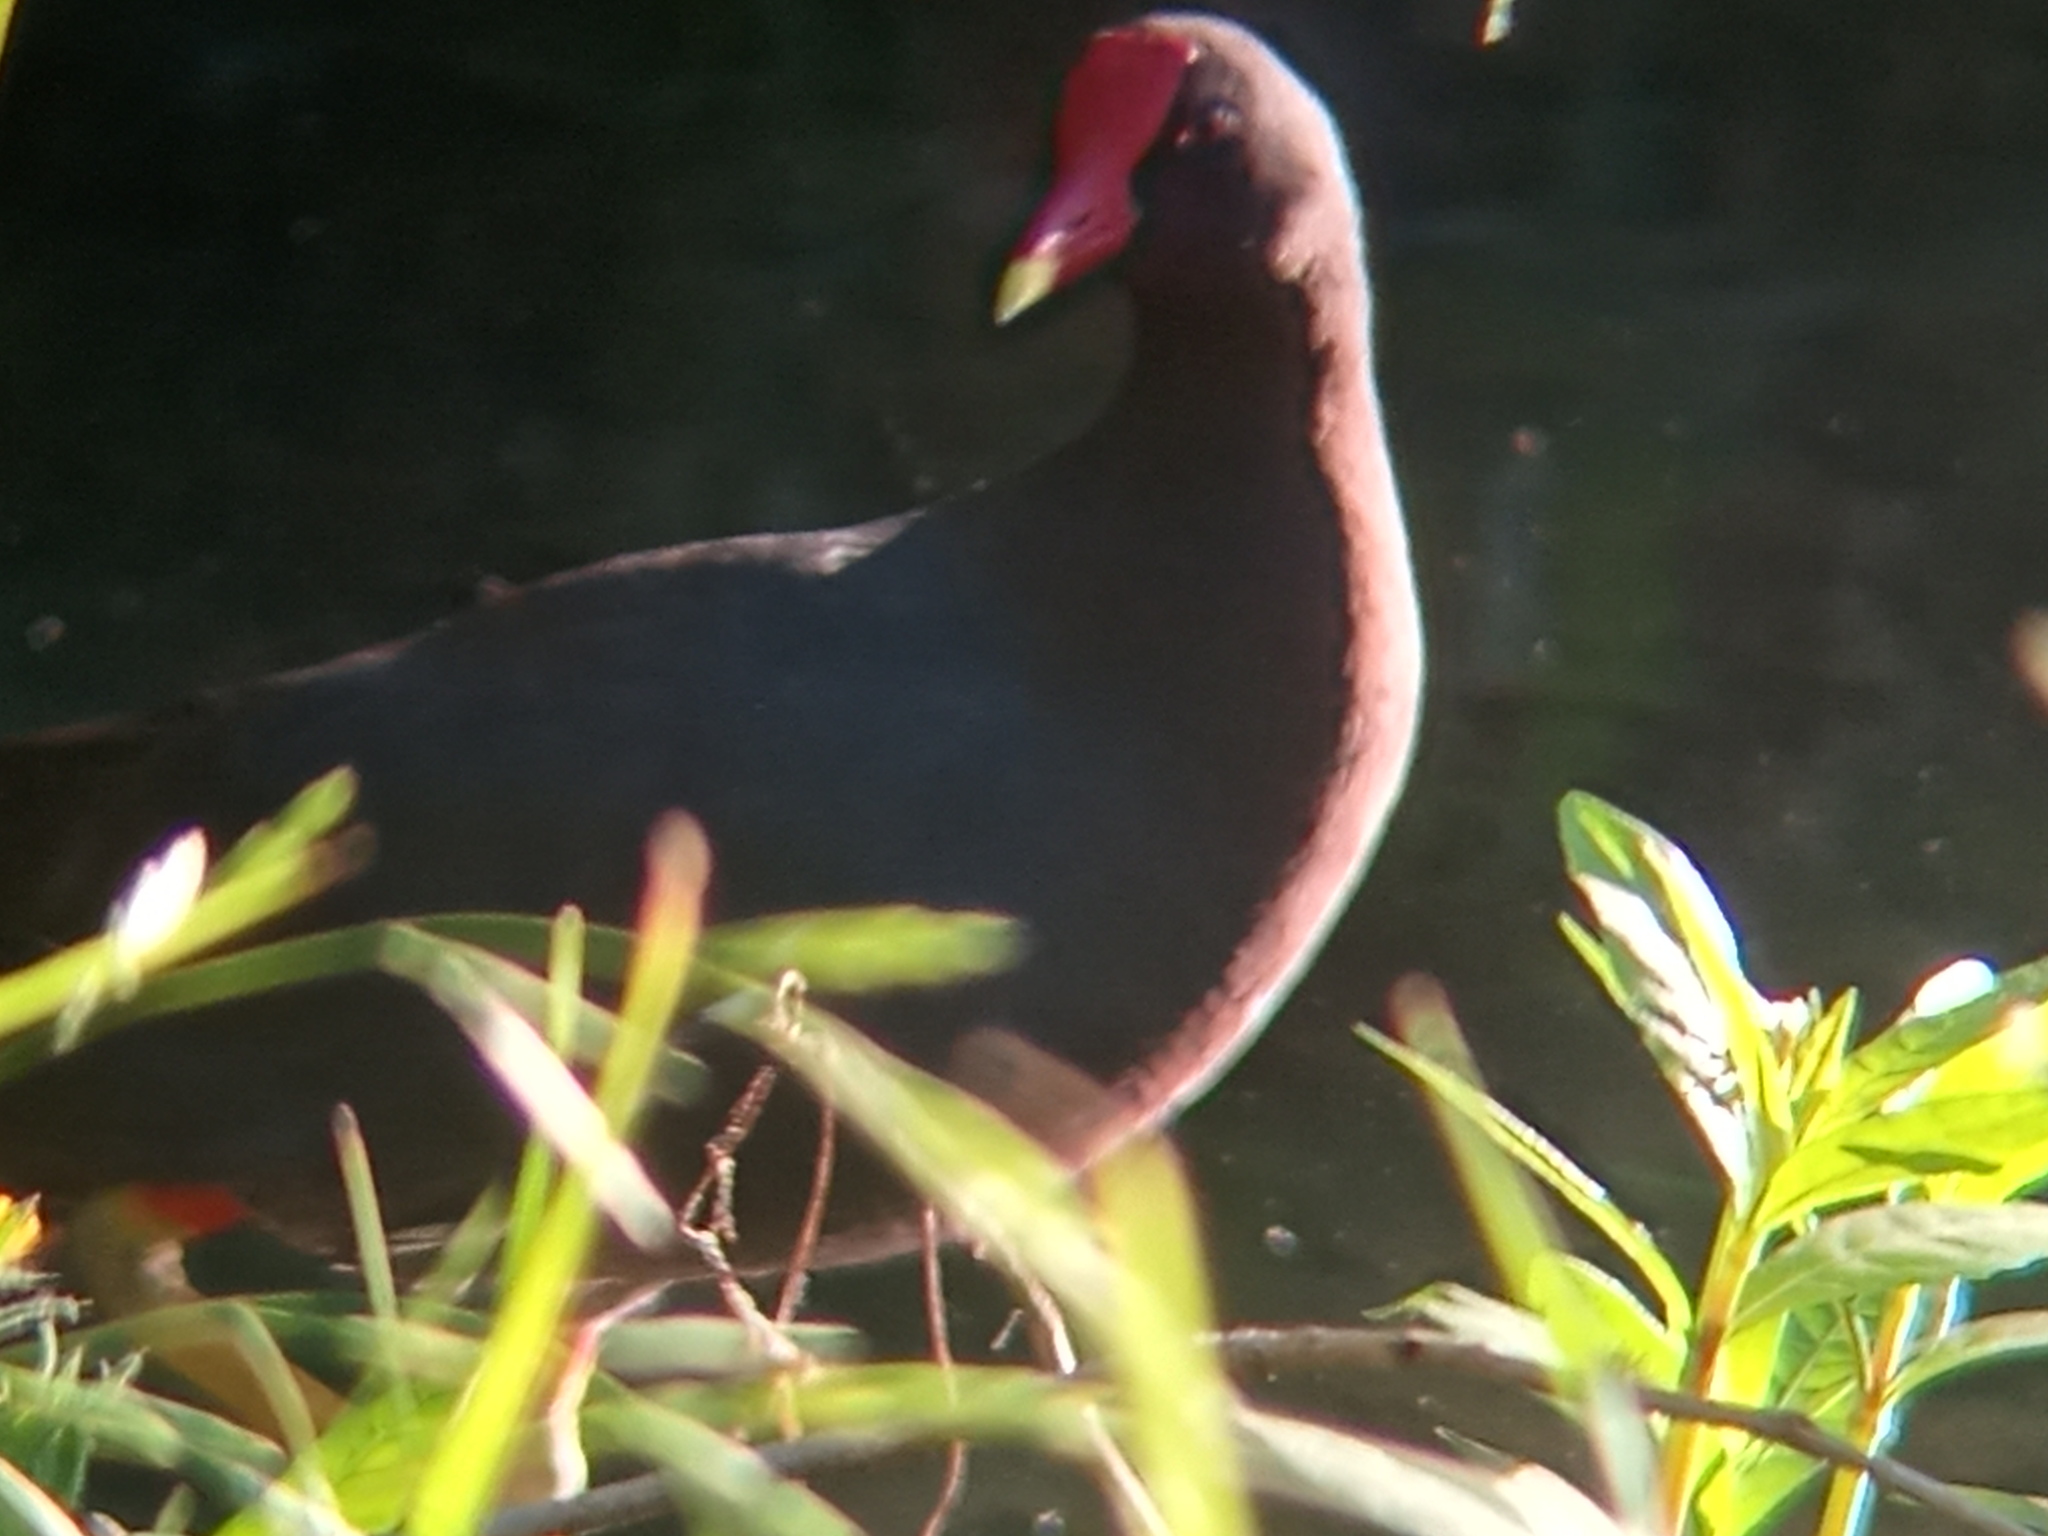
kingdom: Animalia
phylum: Chordata
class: Aves
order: Gruiformes
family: Rallidae
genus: Gallinula
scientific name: Gallinula chloropus
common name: Common moorhen
